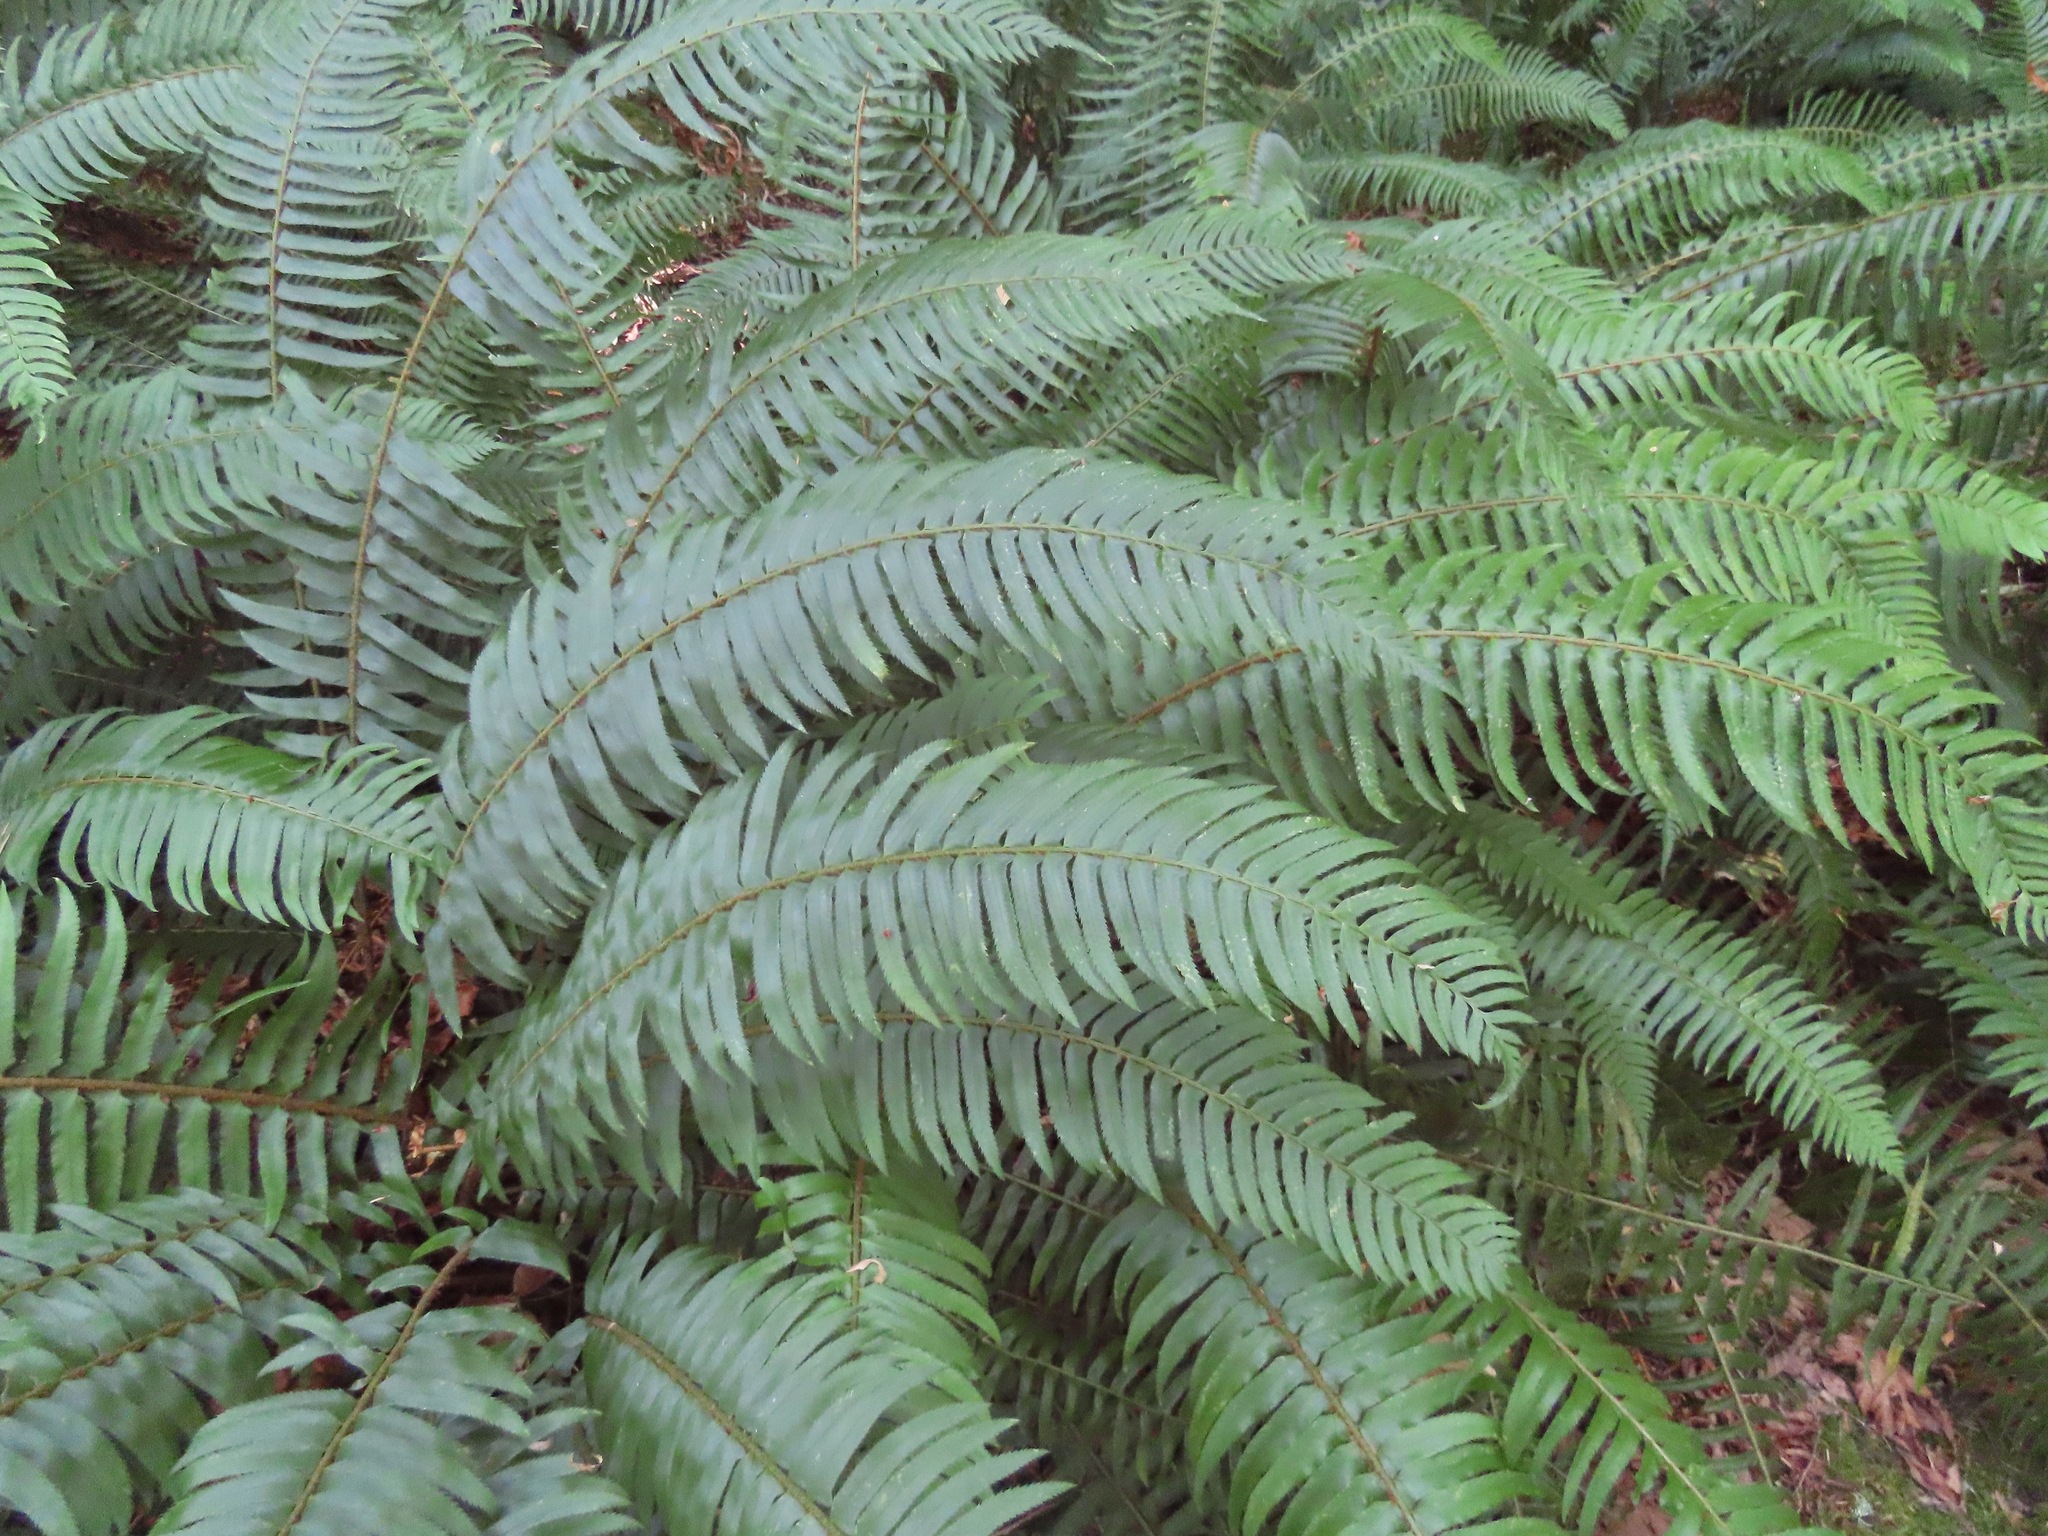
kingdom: Plantae
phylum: Tracheophyta
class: Polypodiopsida
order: Polypodiales
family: Dryopteridaceae
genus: Polystichum
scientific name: Polystichum munitum
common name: Western sword-fern
